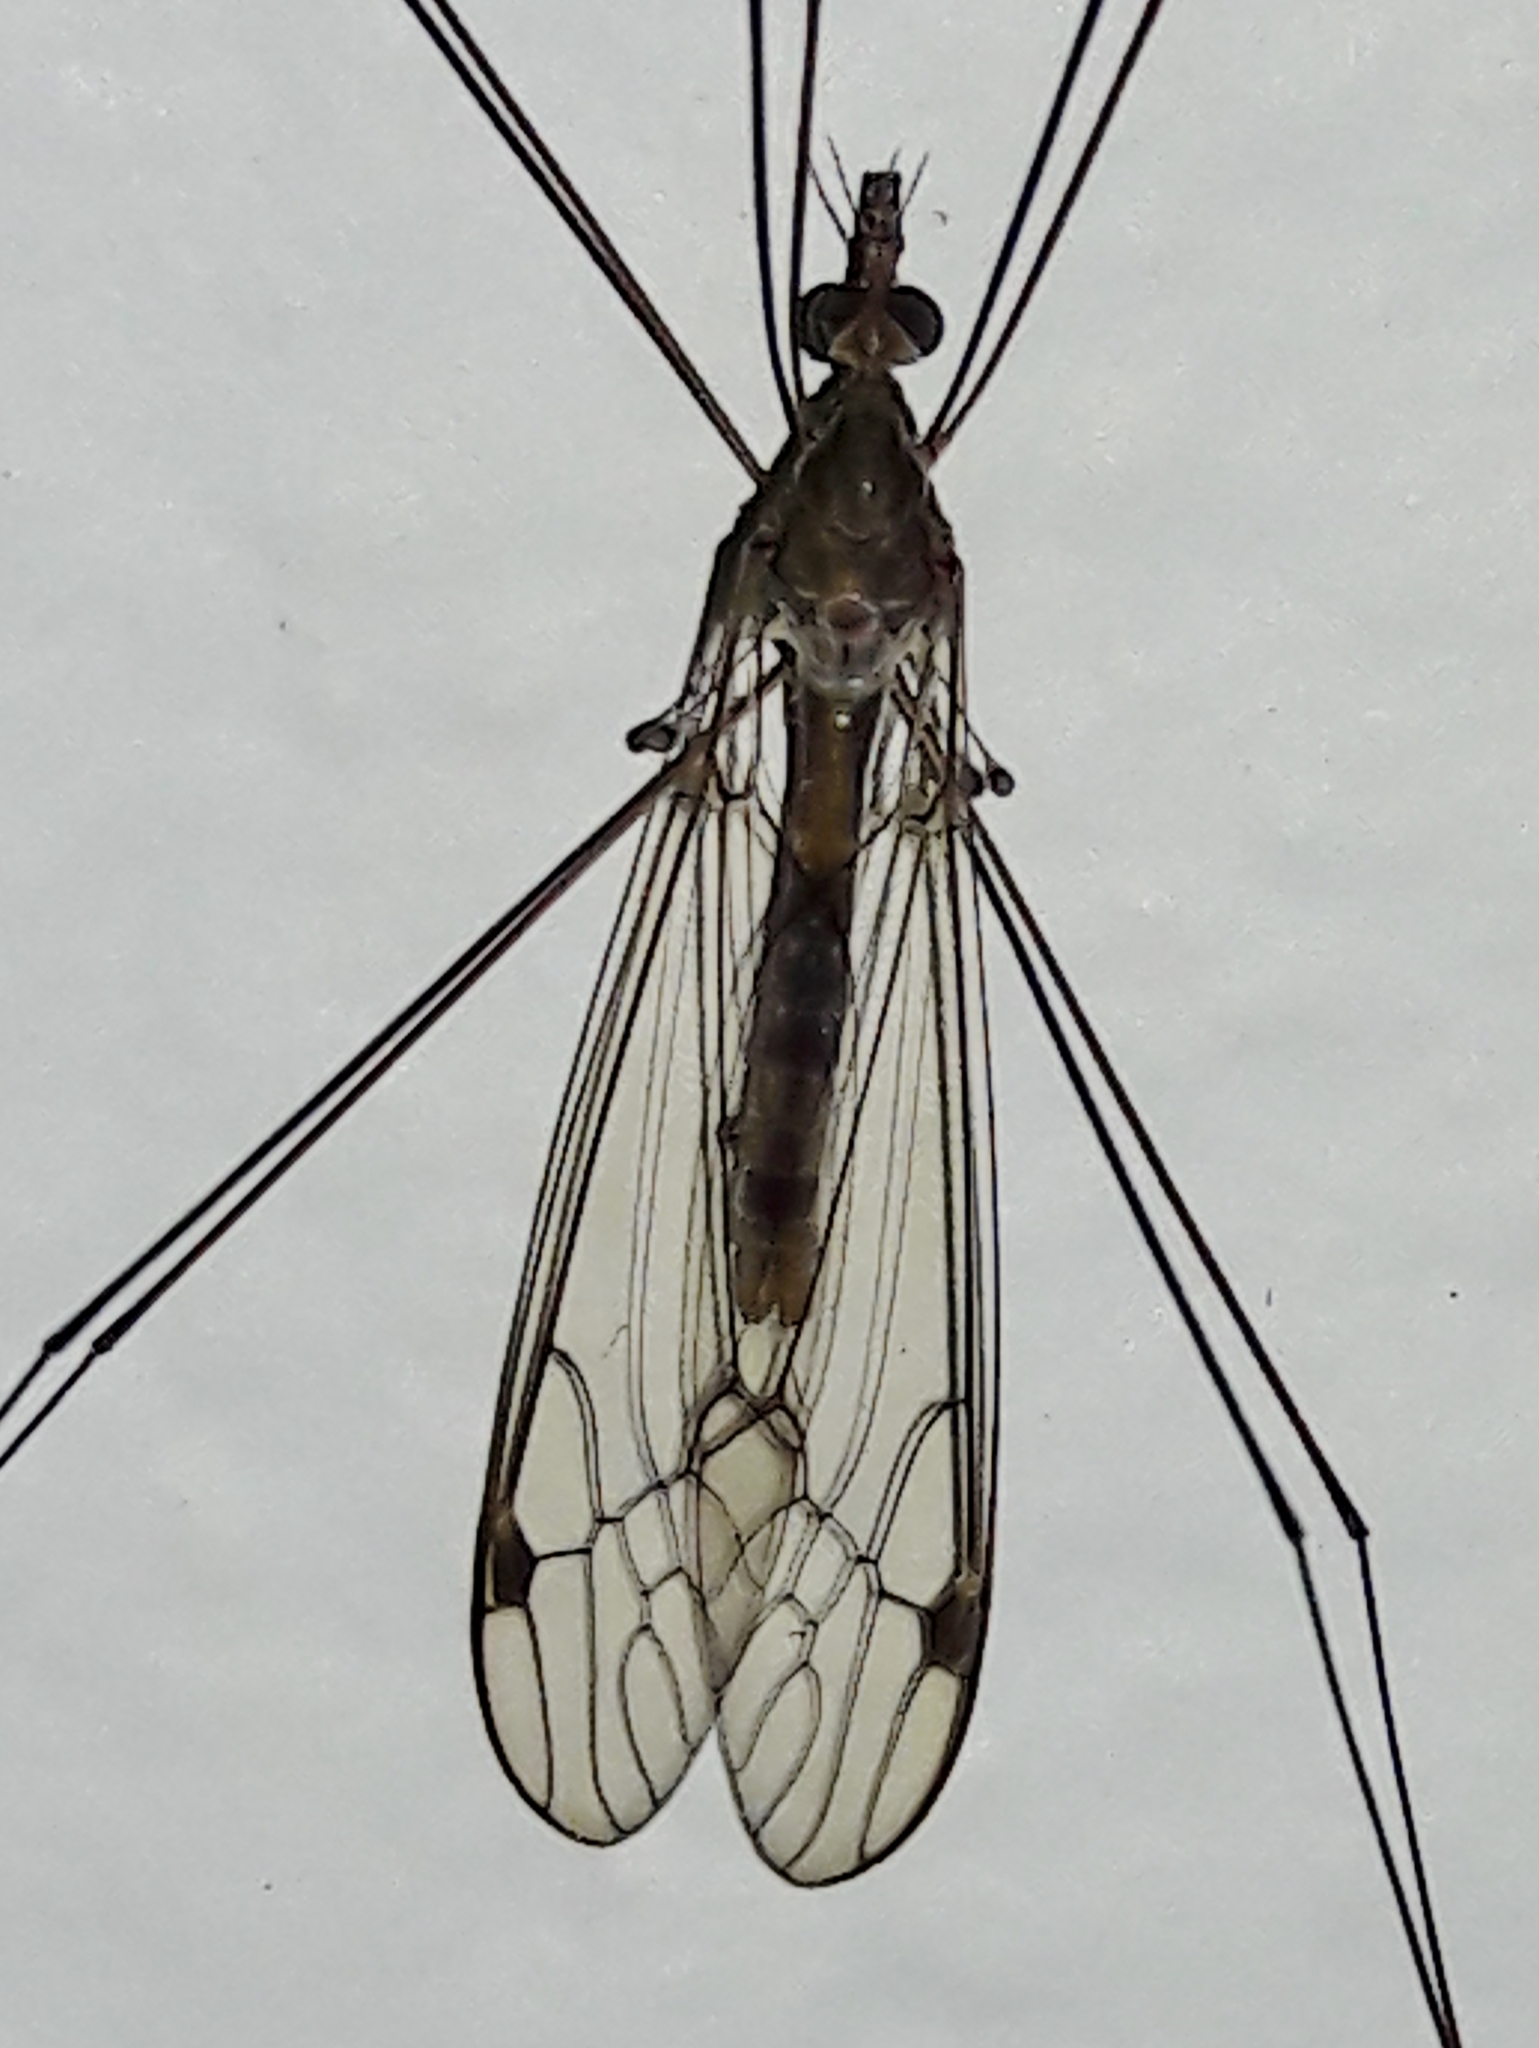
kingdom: Animalia
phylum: Arthropoda
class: Insecta
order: Diptera
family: Tipulidae
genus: Maekistocera
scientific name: Maekistocera longipennis
